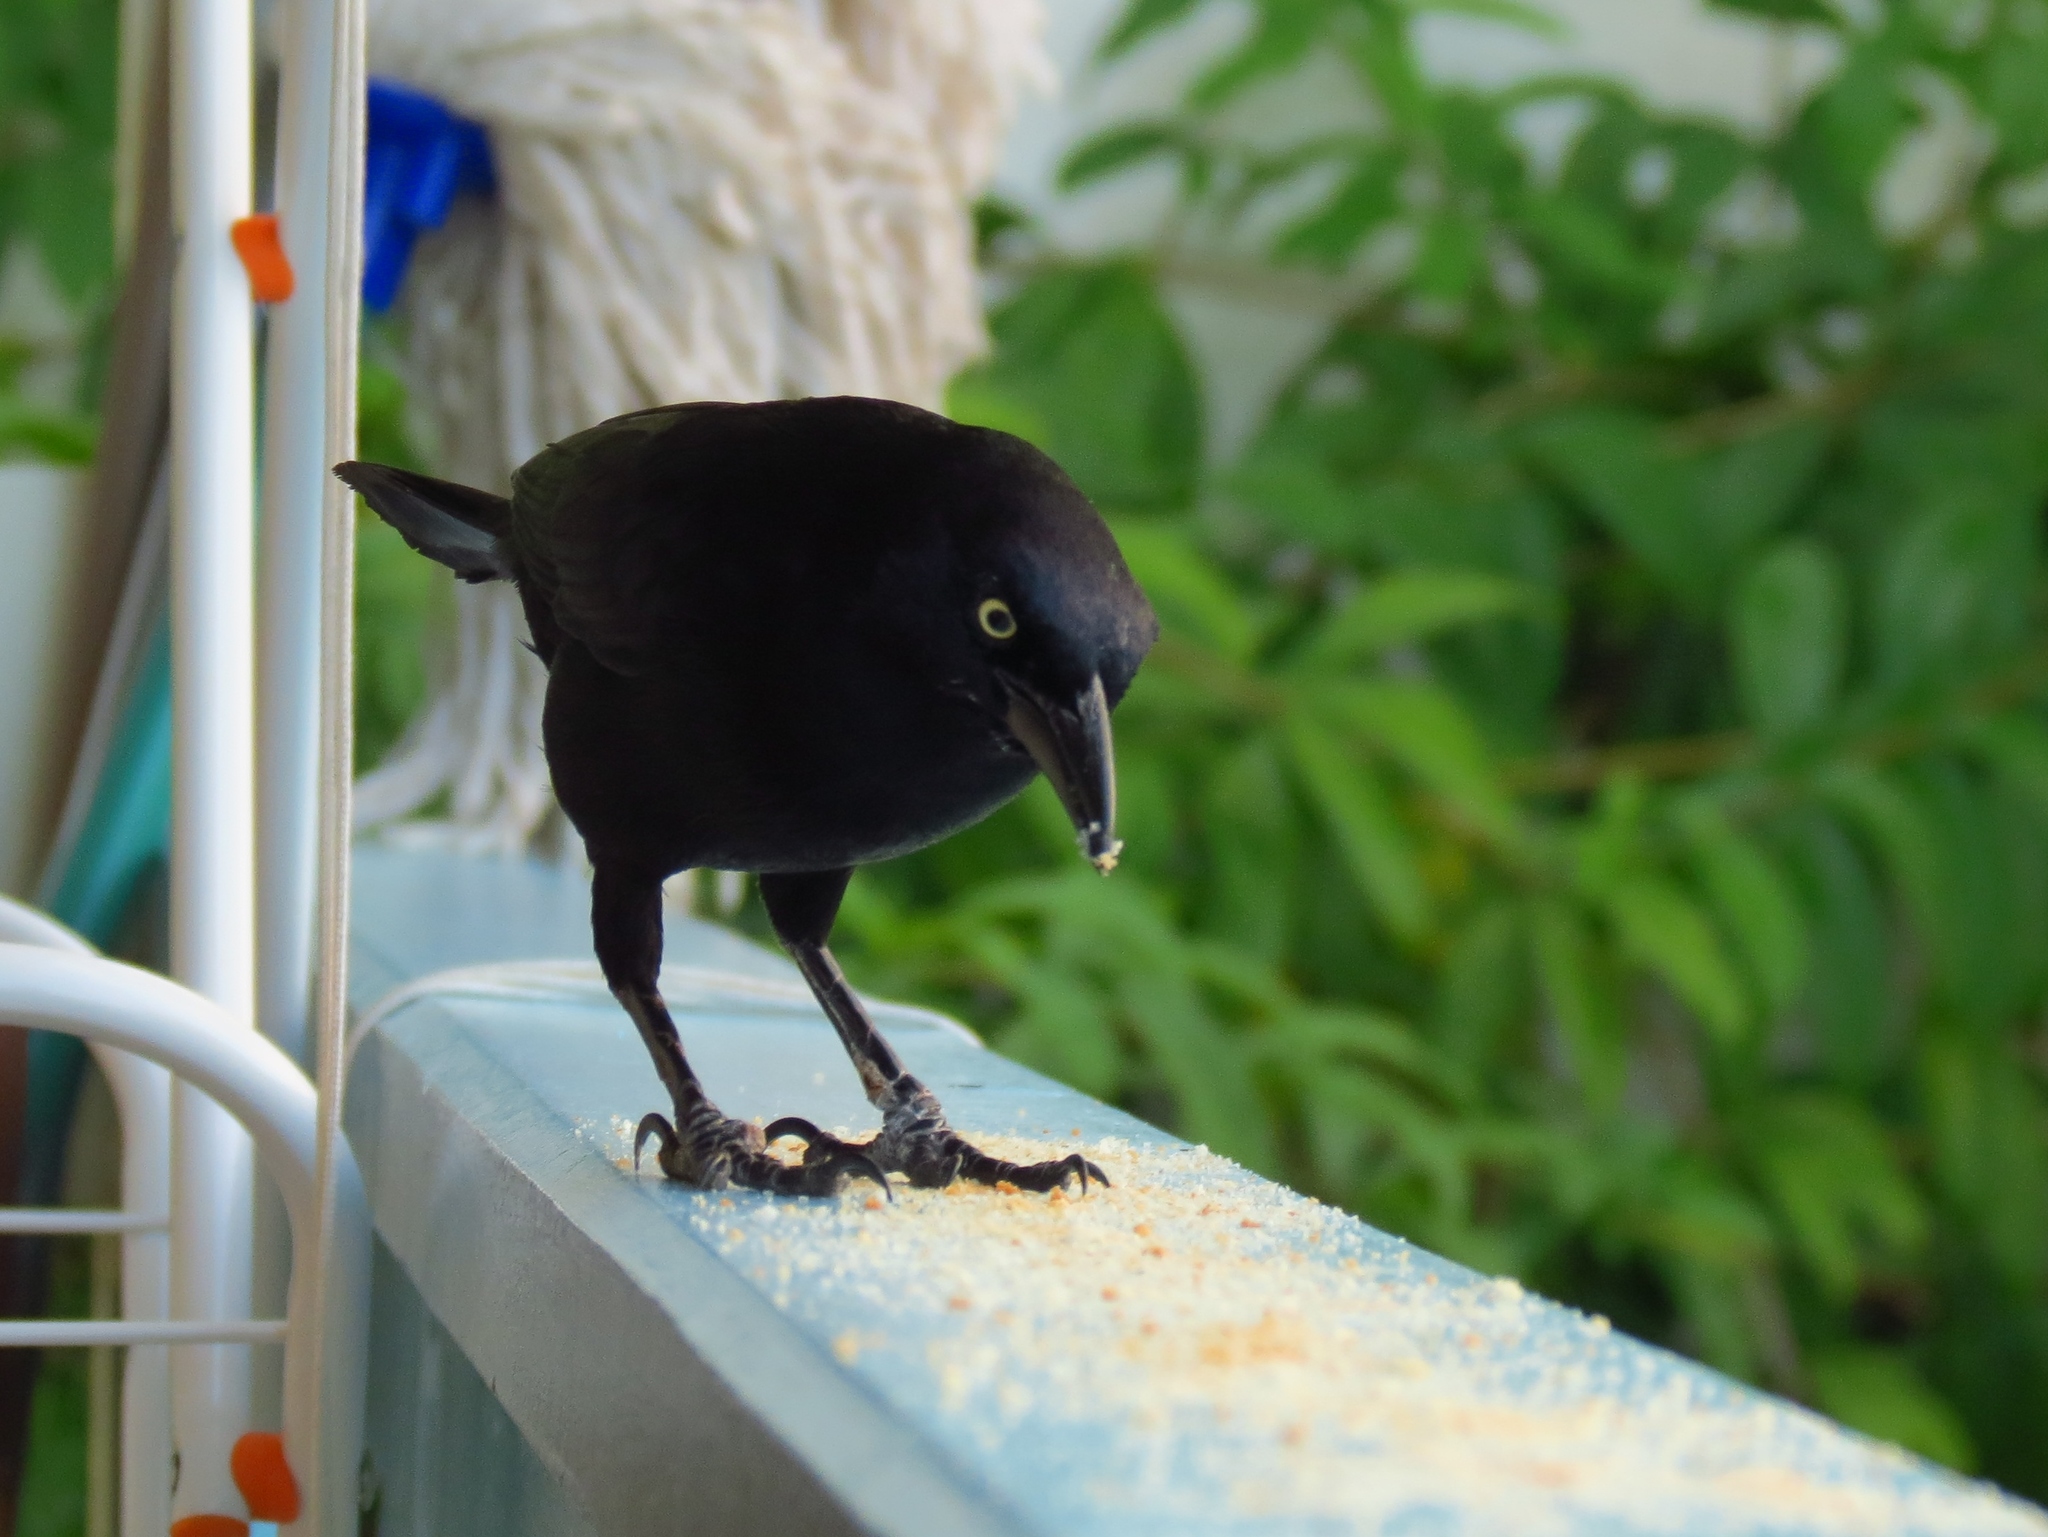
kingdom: Animalia
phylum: Chordata
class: Aves
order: Passeriformes
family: Icteridae
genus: Quiscalus
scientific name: Quiscalus lugubris
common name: Carib grackle
